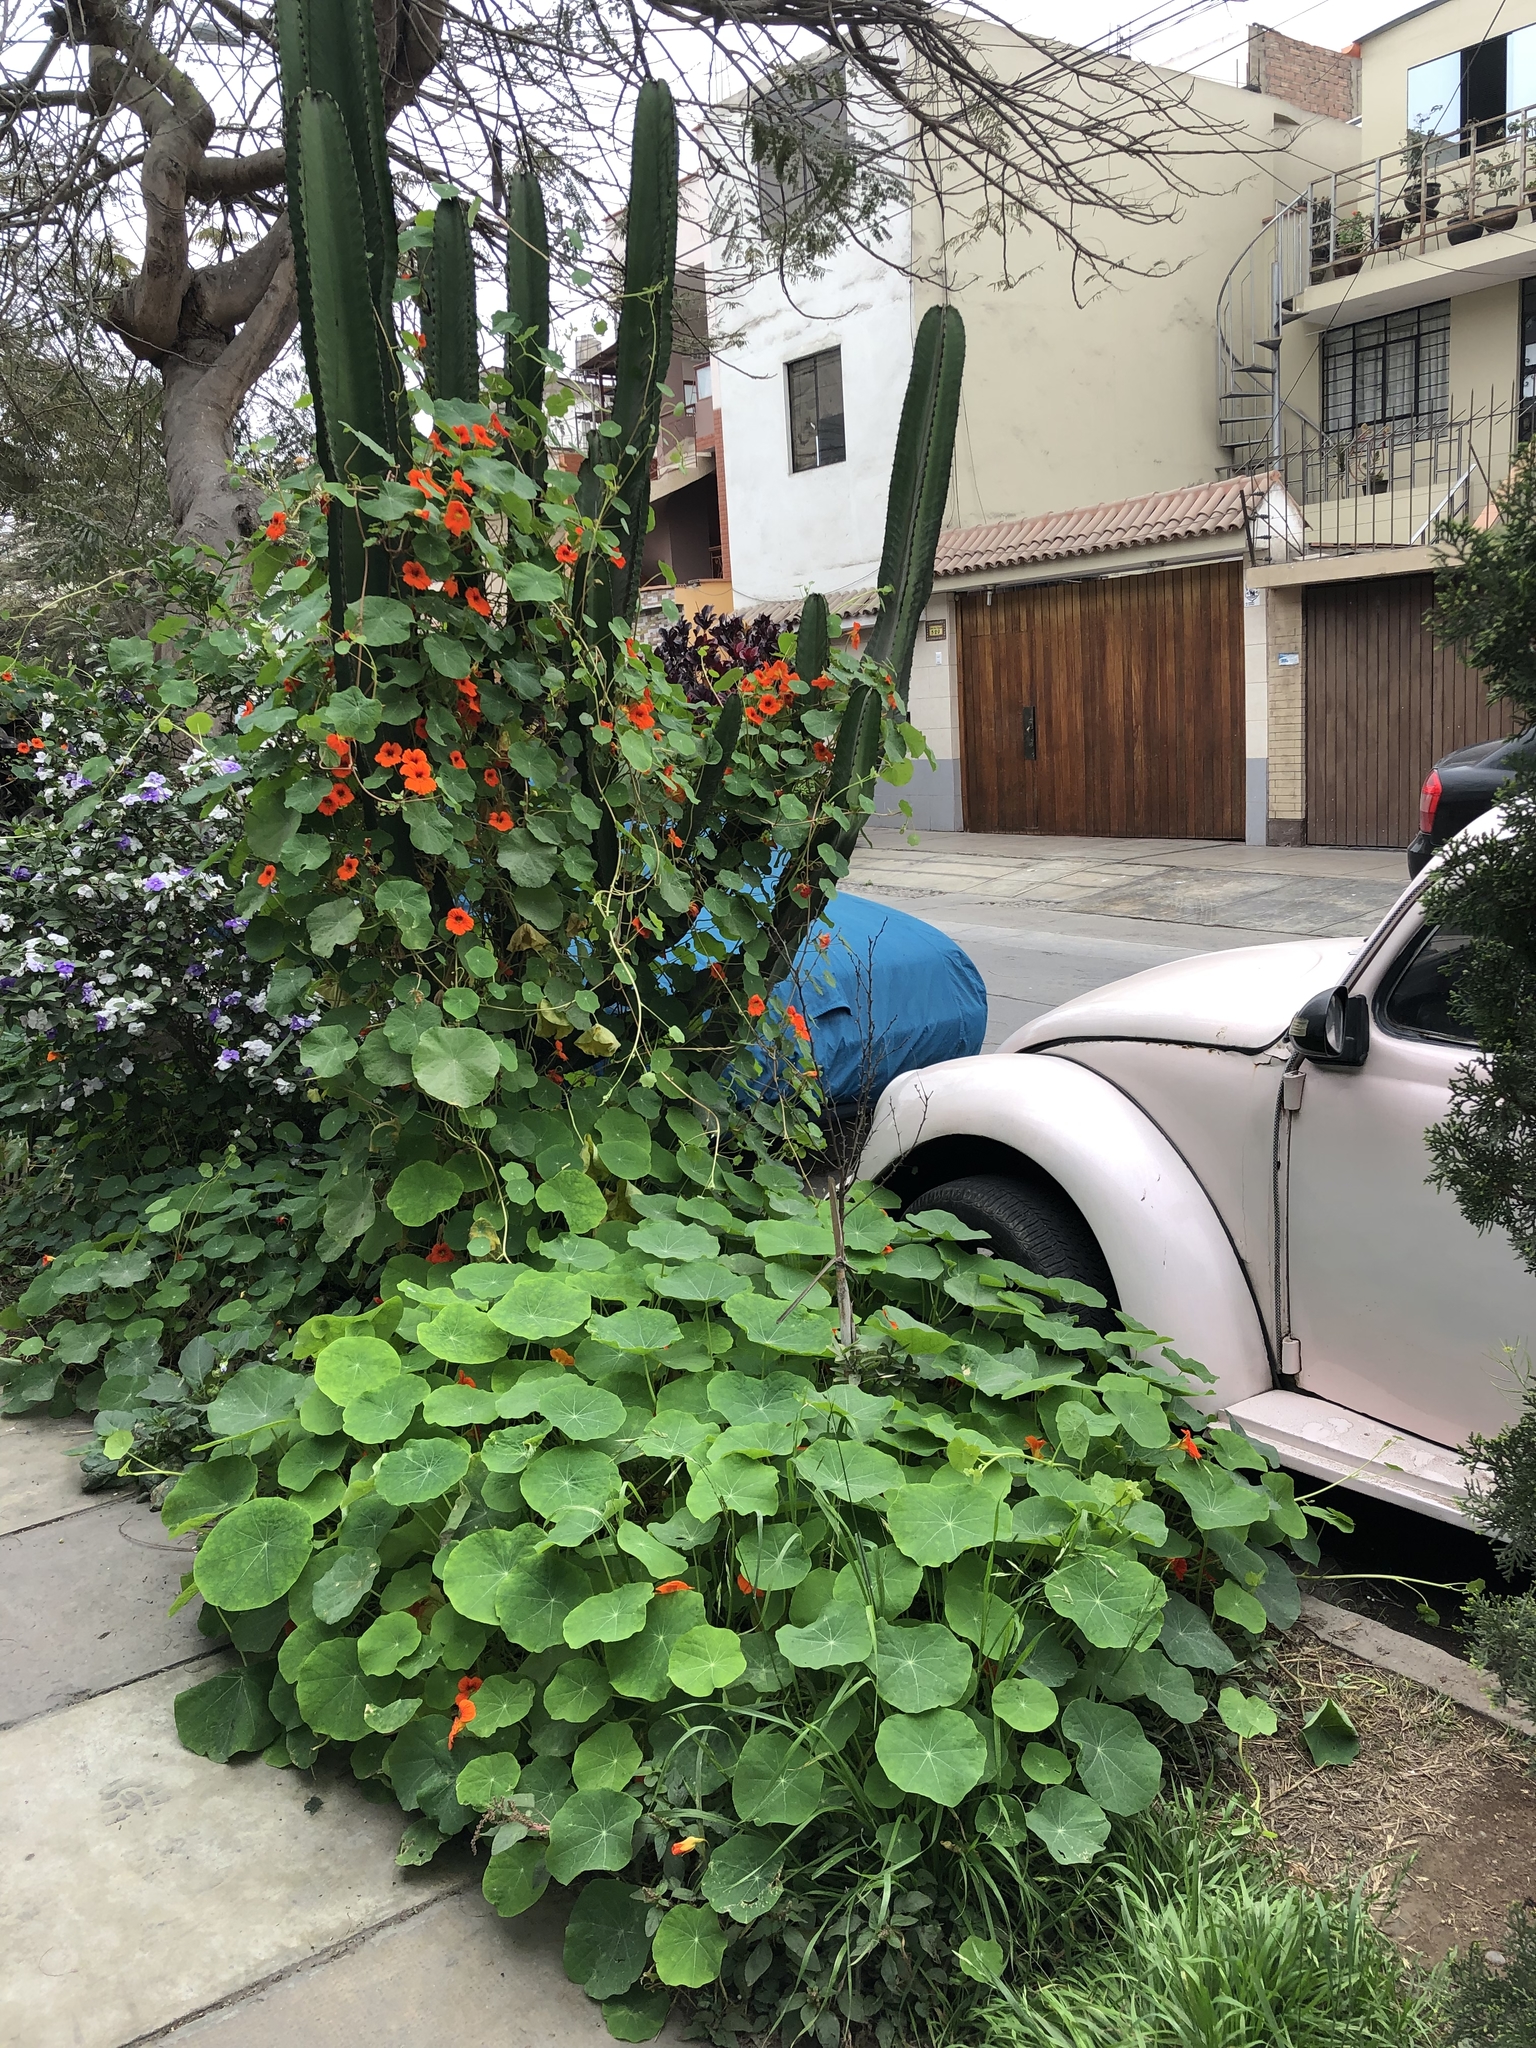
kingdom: Plantae
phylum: Tracheophyta
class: Magnoliopsida
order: Brassicales
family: Tropaeolaceae
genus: Tropaeolum
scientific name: Tropaeolum majus
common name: Nasturtium
